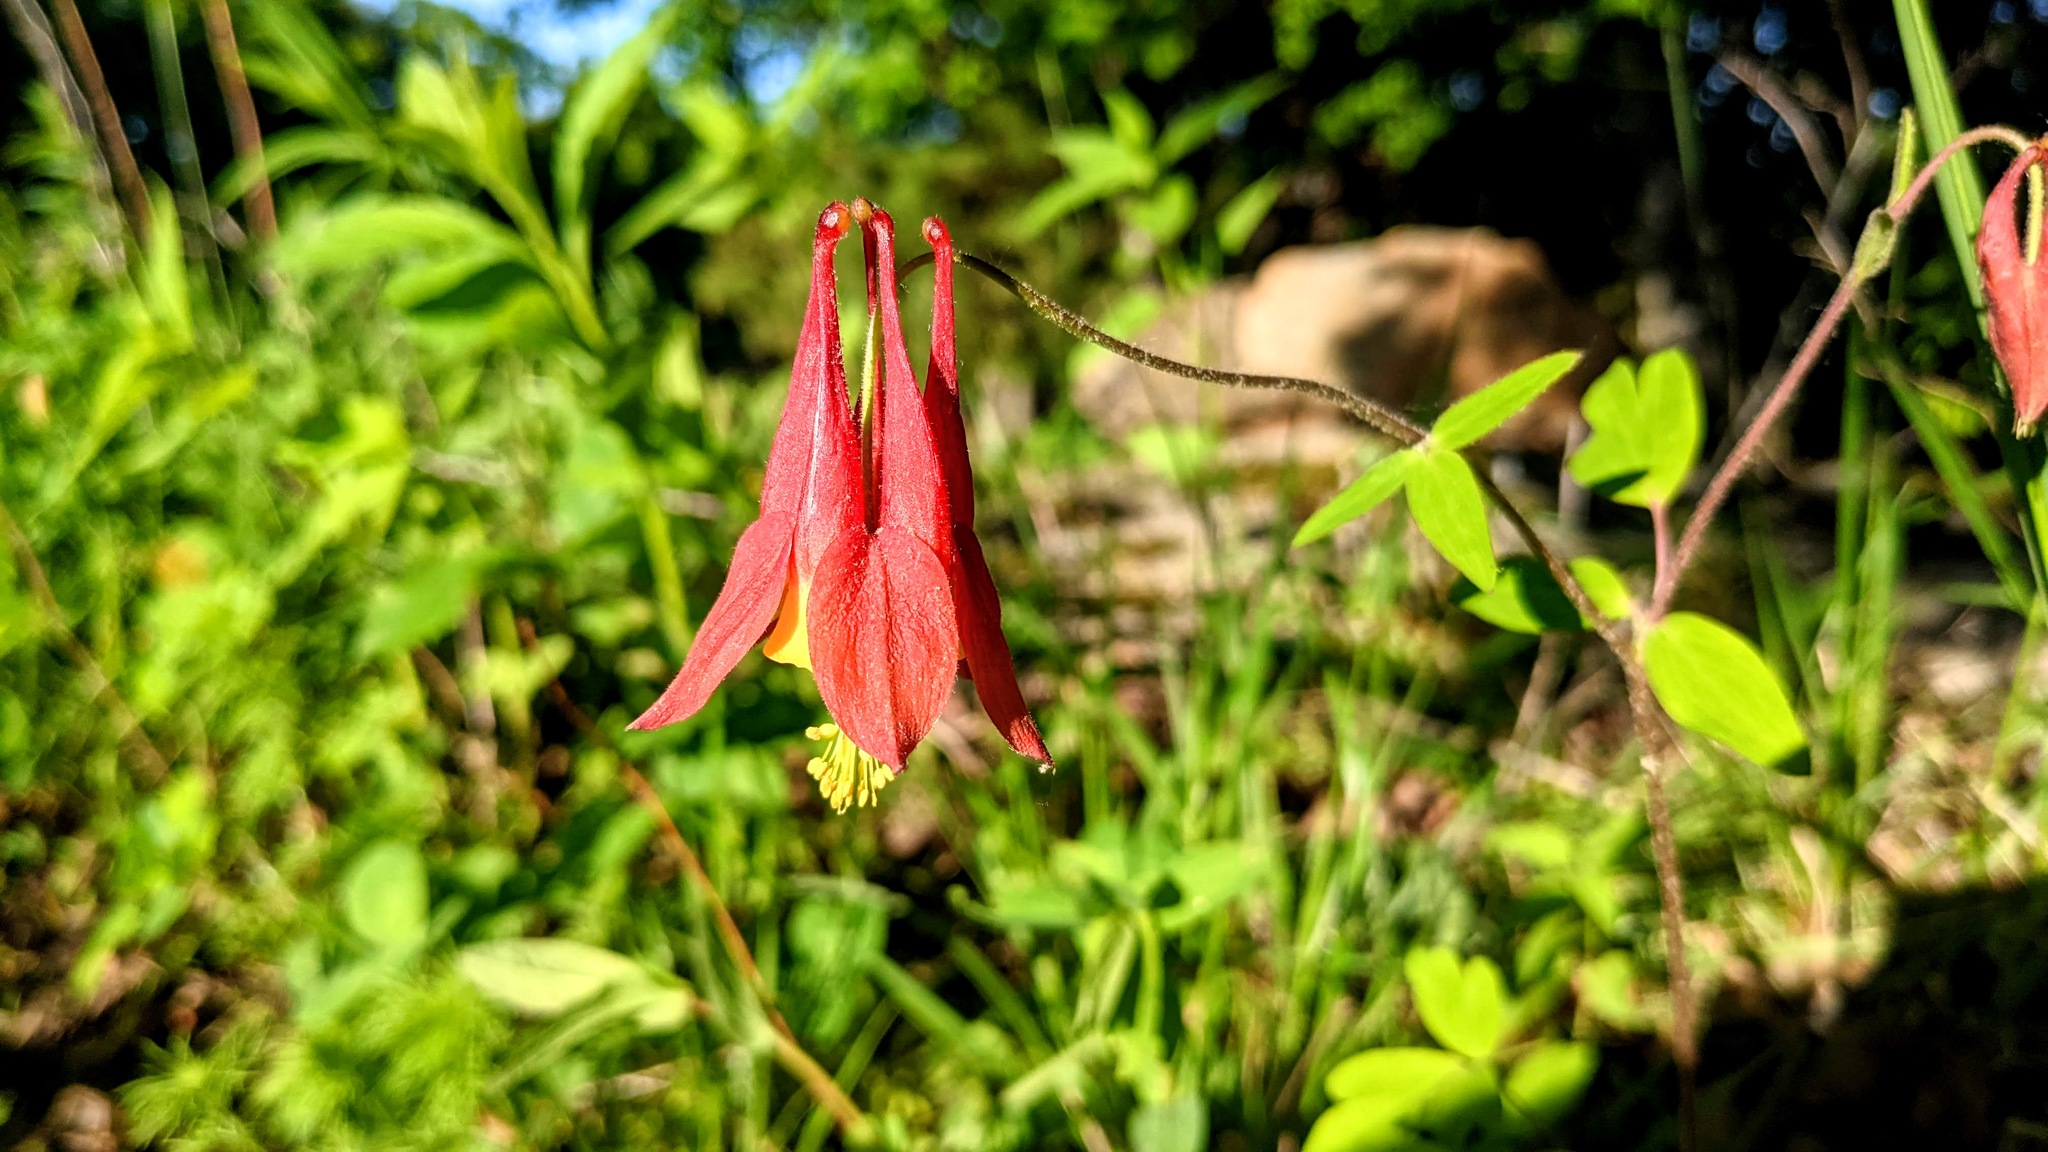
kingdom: Plantae
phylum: Tracheophyta
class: Magnoliopsida
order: Ranunculales
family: Ranunculaceae
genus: Aquilegia
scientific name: Aquilegia canadensis
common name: American columbine
